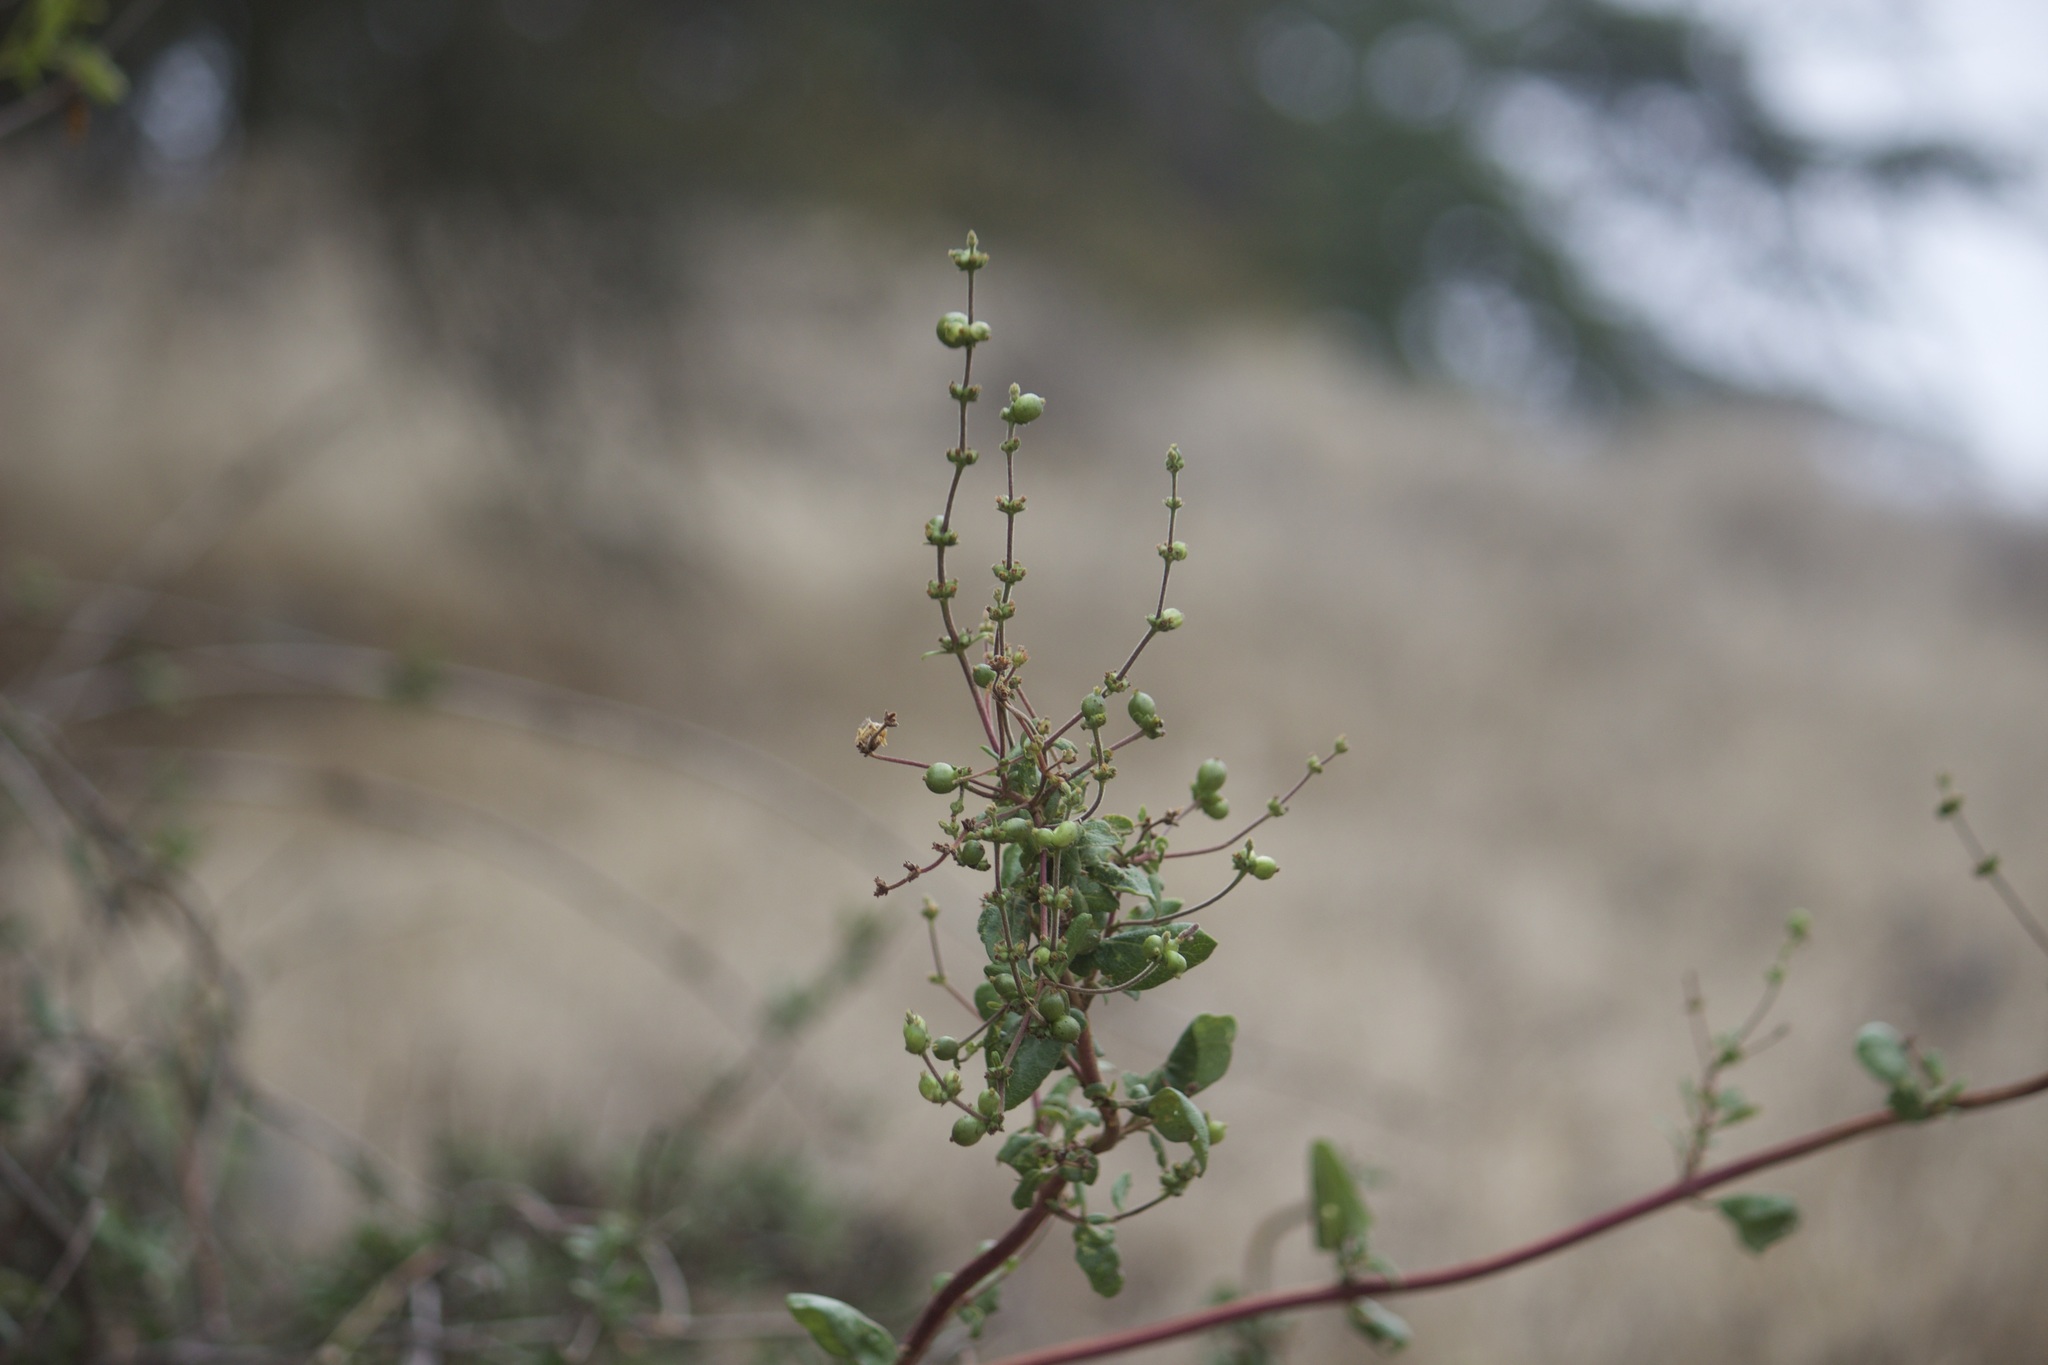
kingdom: Plantae
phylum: Tracheophyta
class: Magnoliopsida
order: Dipsacales
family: Caprifoliaceae
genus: Lonicera
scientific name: Lonicera subspicata
